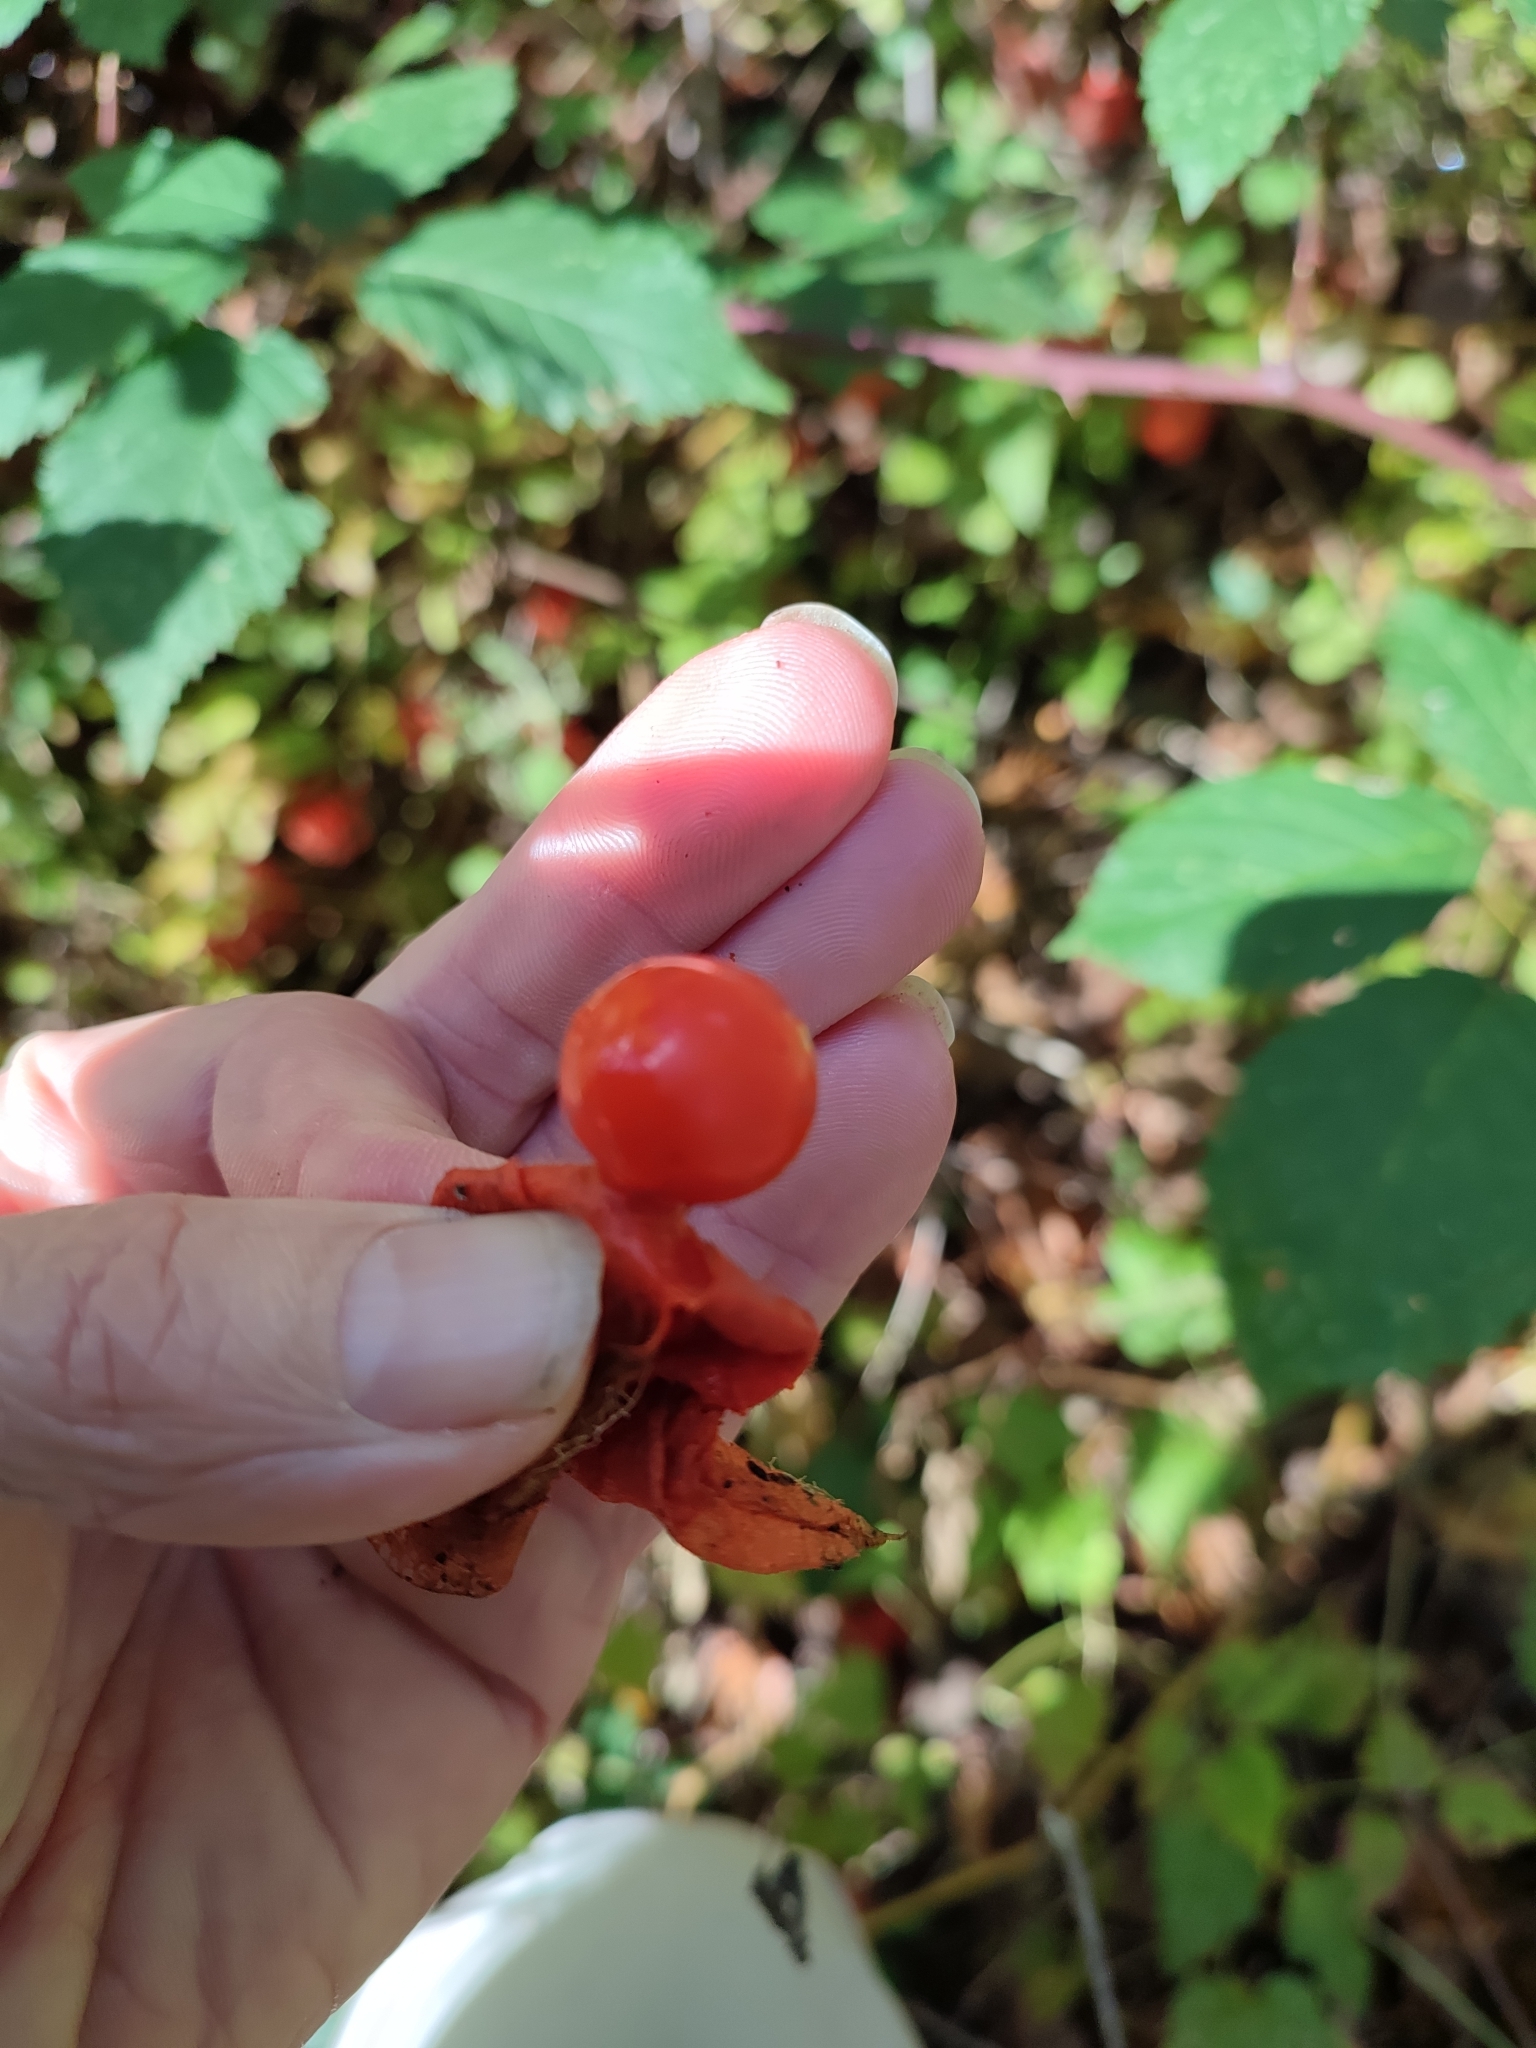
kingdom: Plantae
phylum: Tracheophyta
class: Magnoliopsida
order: Solanales
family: Solanaceae
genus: Alkekengi
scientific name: Alkekengi officinarum
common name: Japanese-lantern
